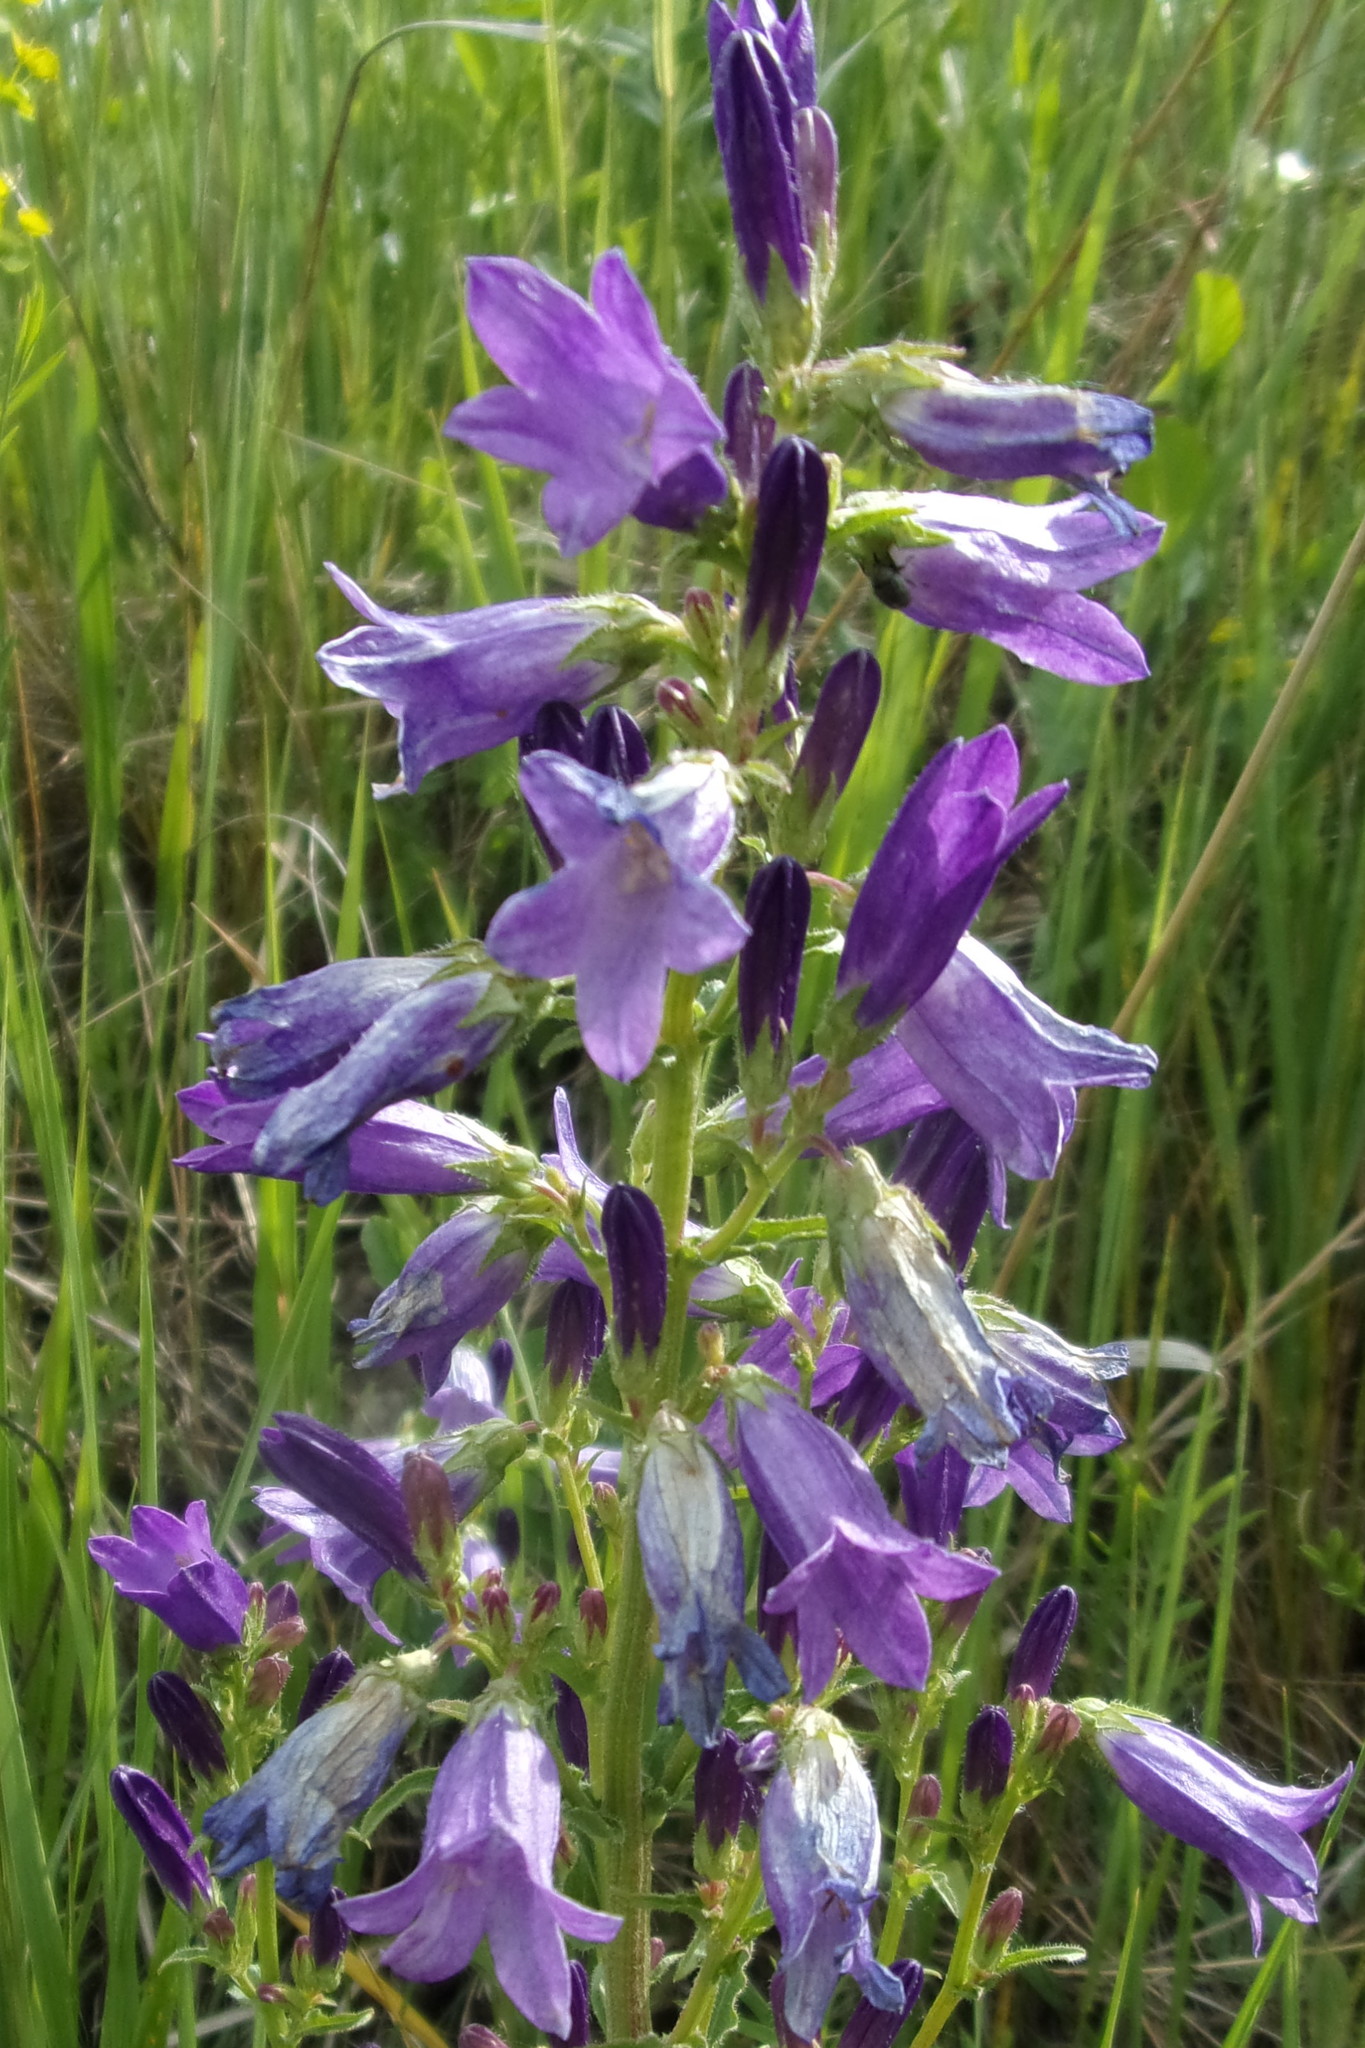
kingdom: Plantae
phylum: Tracheophyta
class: Magnoliopsida
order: Asterales
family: Campanulaceae
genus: Campanula
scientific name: Campanula sibirica
